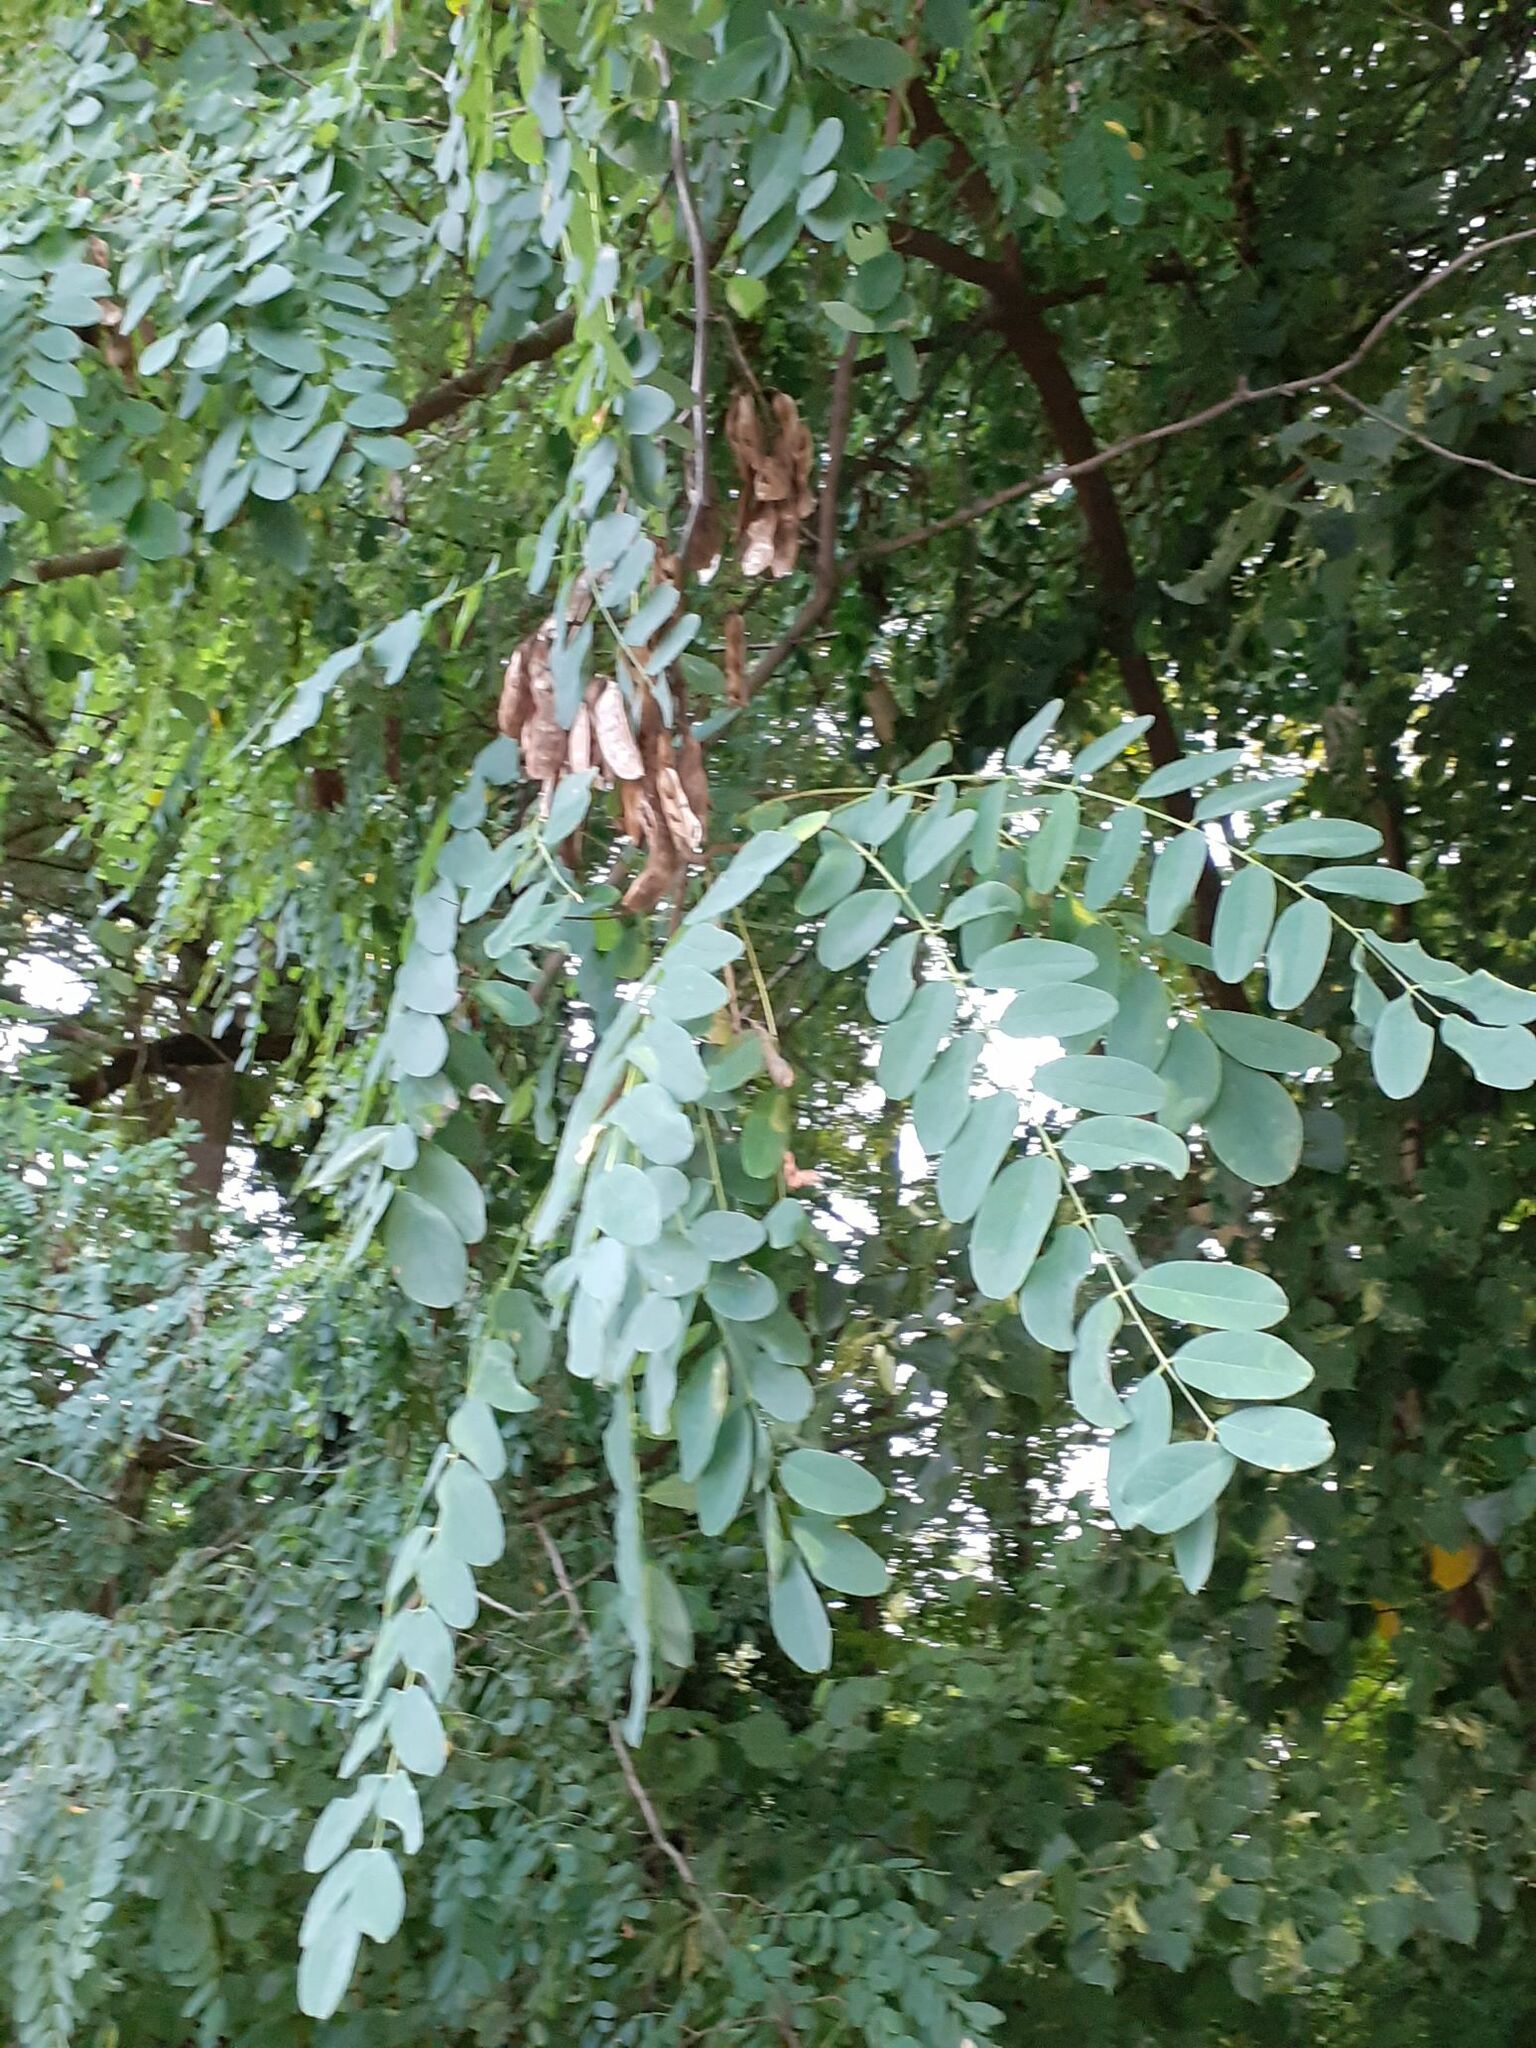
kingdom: Plantae
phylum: Tracheophyta
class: Magnoliopsida
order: Fabales
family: Fabaceae
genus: Robinia
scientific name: Robinia pseudoacacia
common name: Black locust
